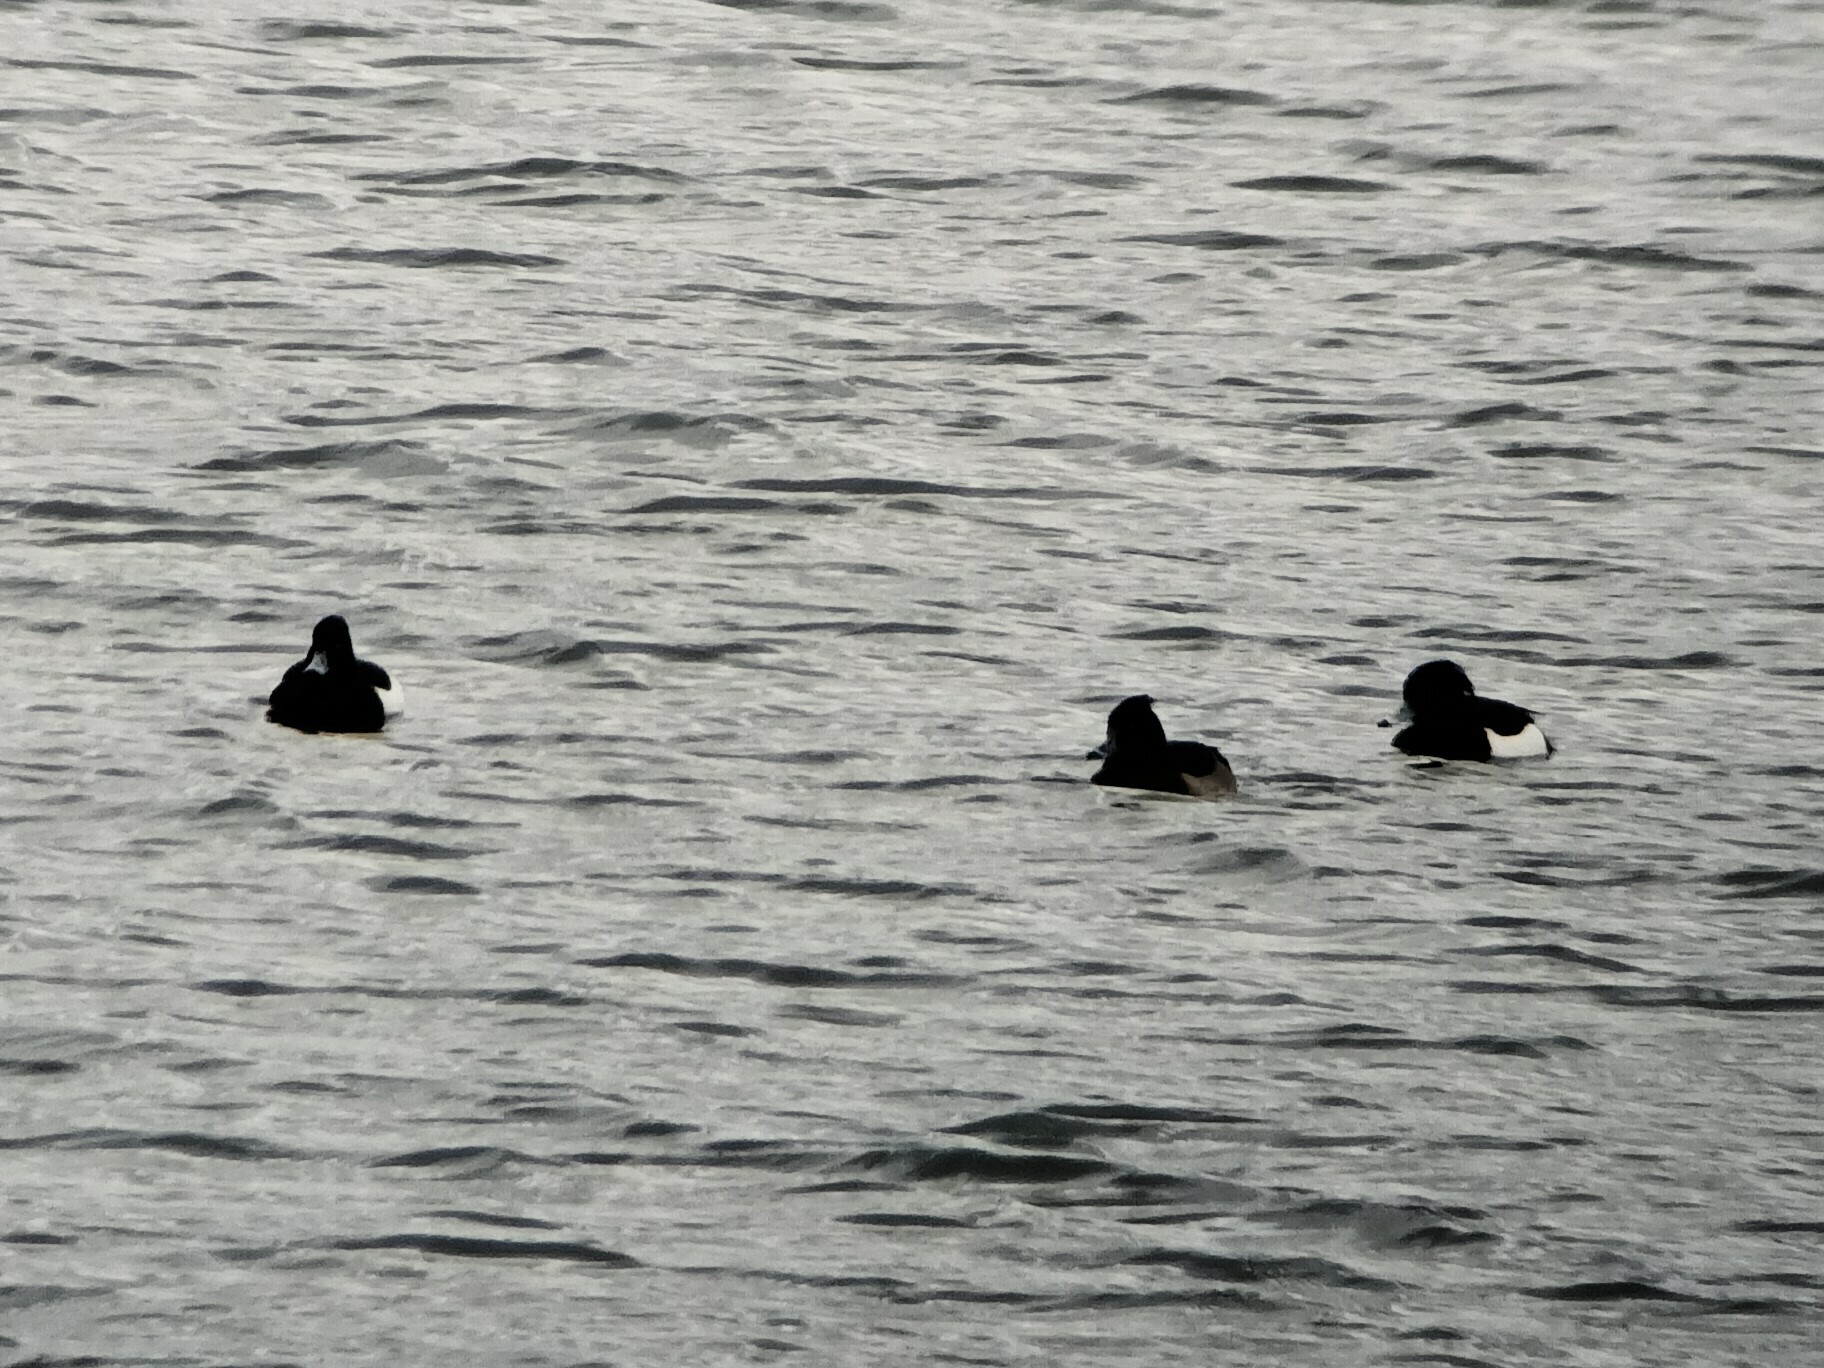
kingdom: Animalia
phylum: Chordata
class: Aves
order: Anseriformes
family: Anatidae
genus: Aythya
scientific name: Aythya fuligula
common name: Tufted duck
